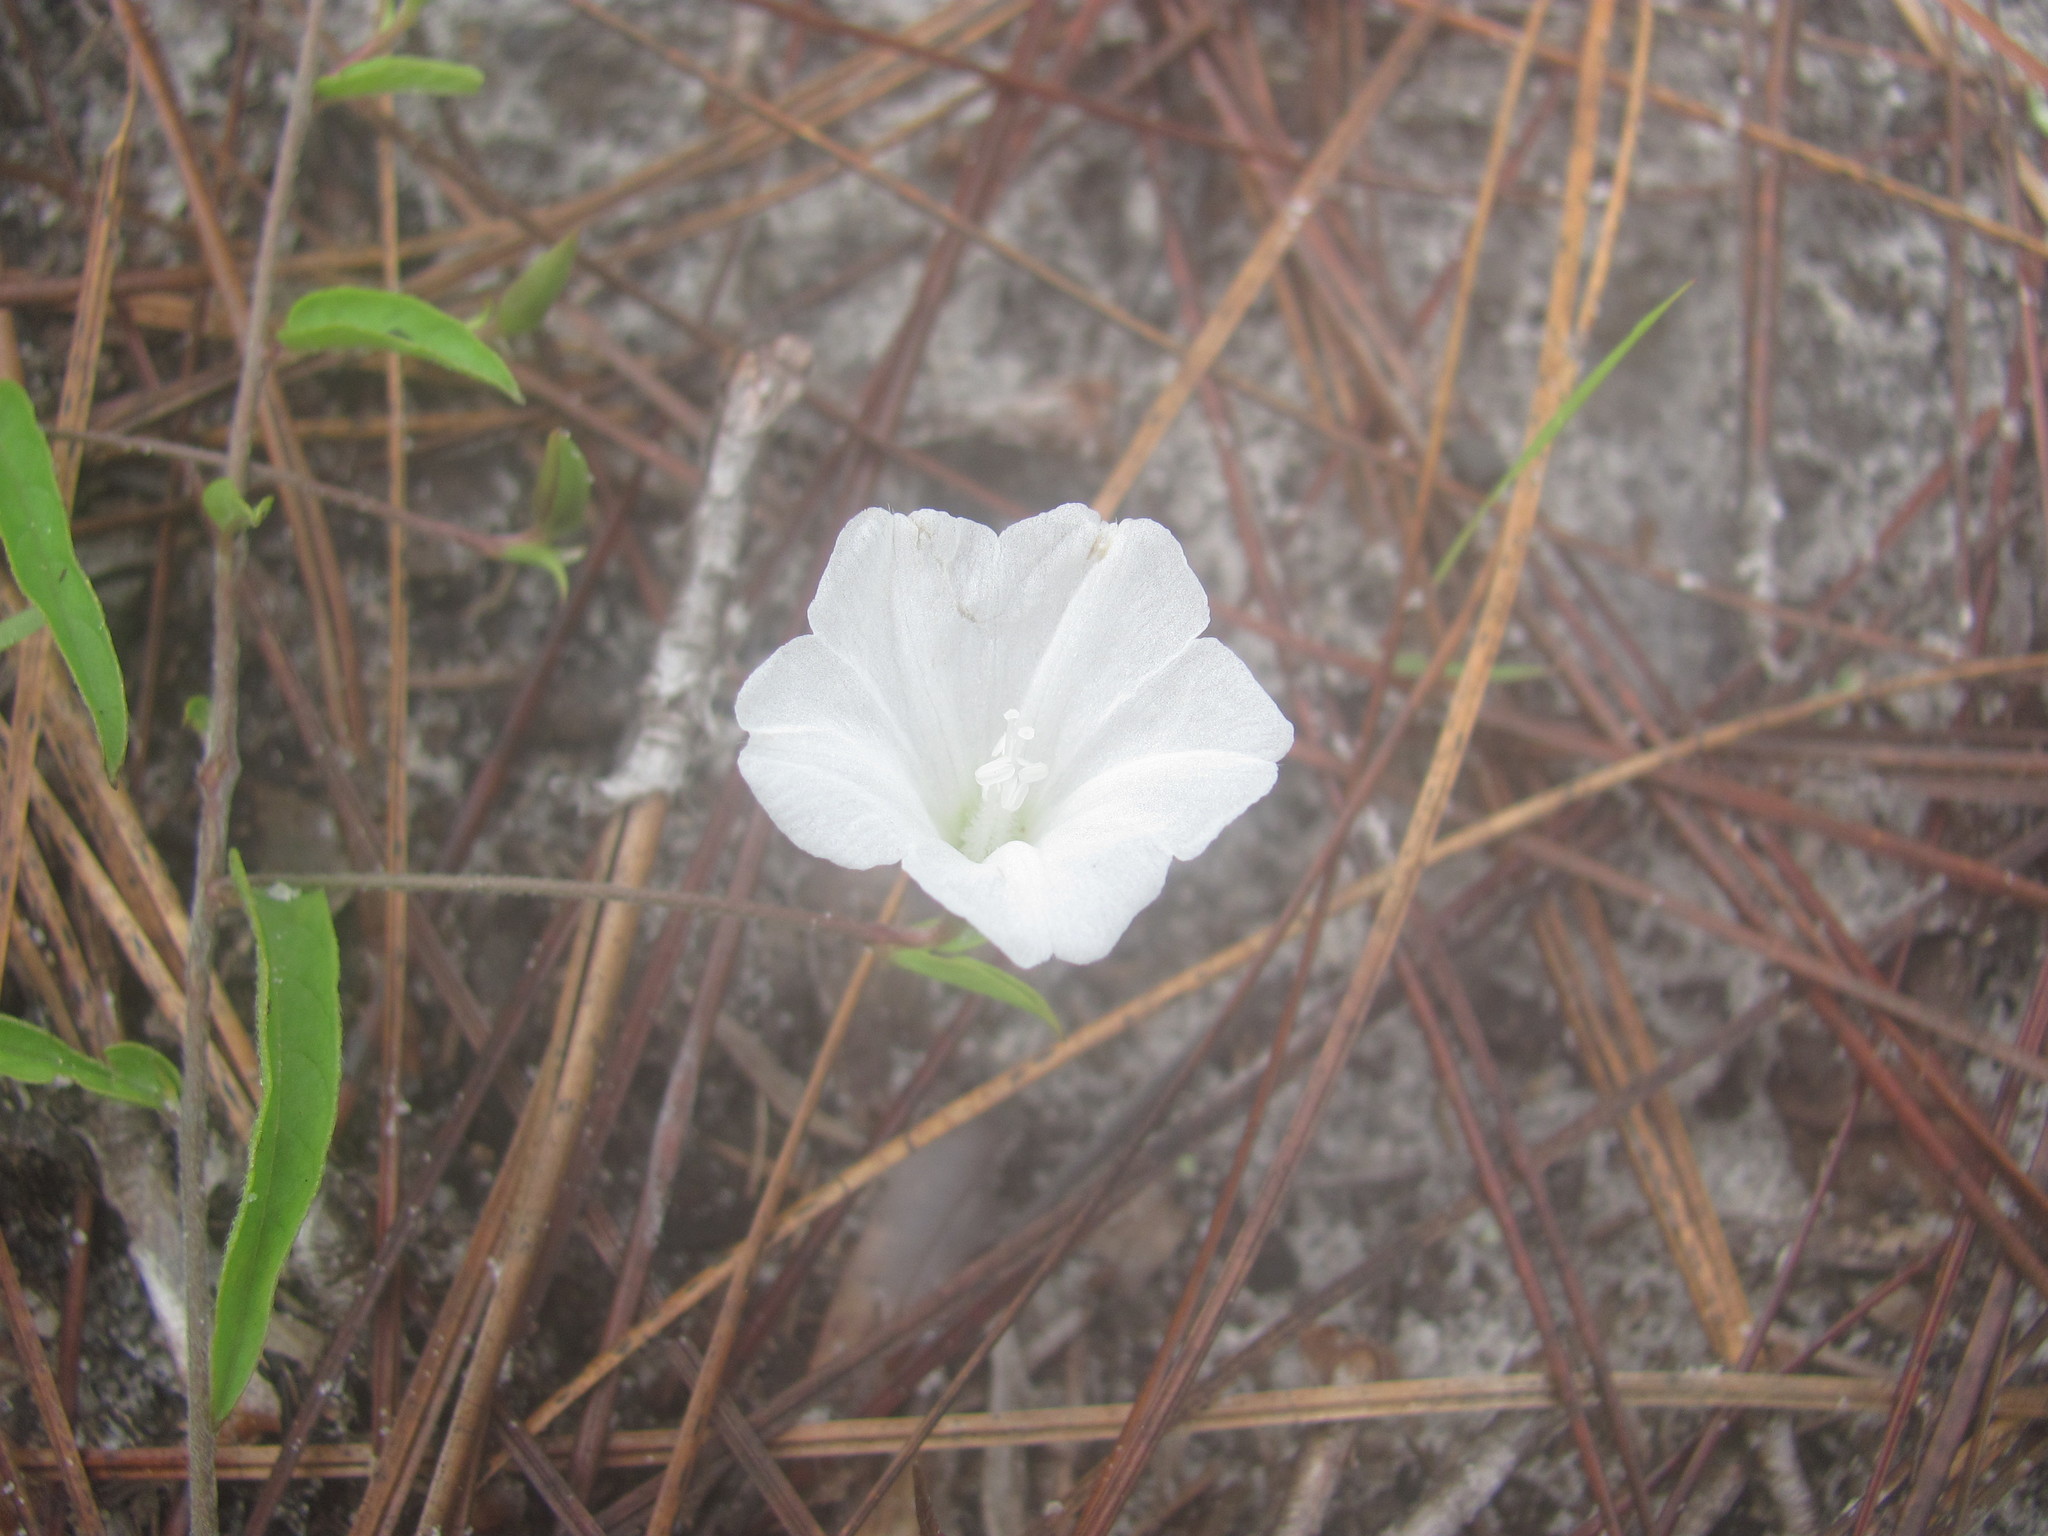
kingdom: Plantae
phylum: Tracheophyta
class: Magnoliopsida
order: Solanales
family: Convolvulaceae
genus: Stylisma
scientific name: Stylisma patens
